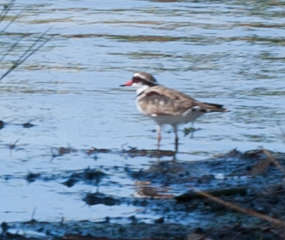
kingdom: Animalia
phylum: Chordata
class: Aves
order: Charadriiformes
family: Charadriidae
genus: Elseyornis
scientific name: Elseyornis melanops
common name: Black-fronted dotterel
